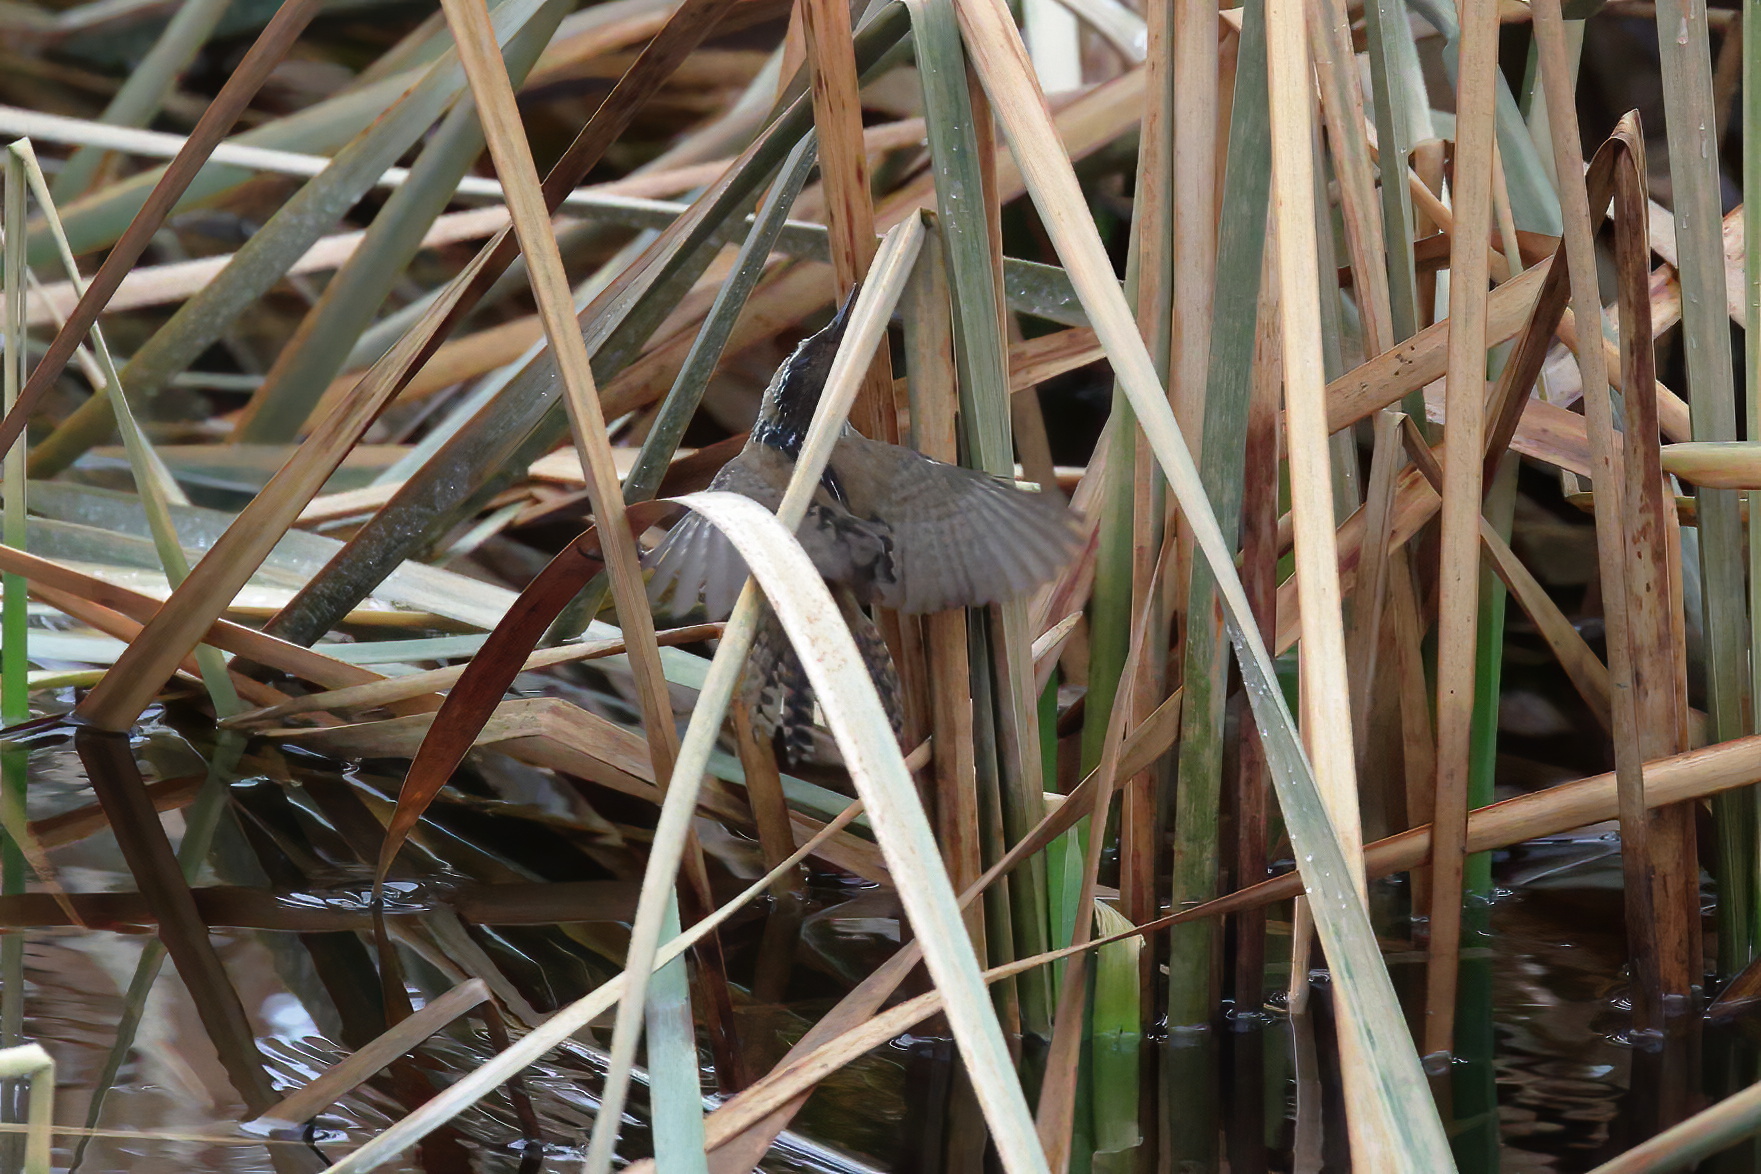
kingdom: Animalia
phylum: Chordata
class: Aves
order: Passeriformes
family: Troglodytidae
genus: Cistothorus
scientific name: Cistothorus palustris
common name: Marsh wren
